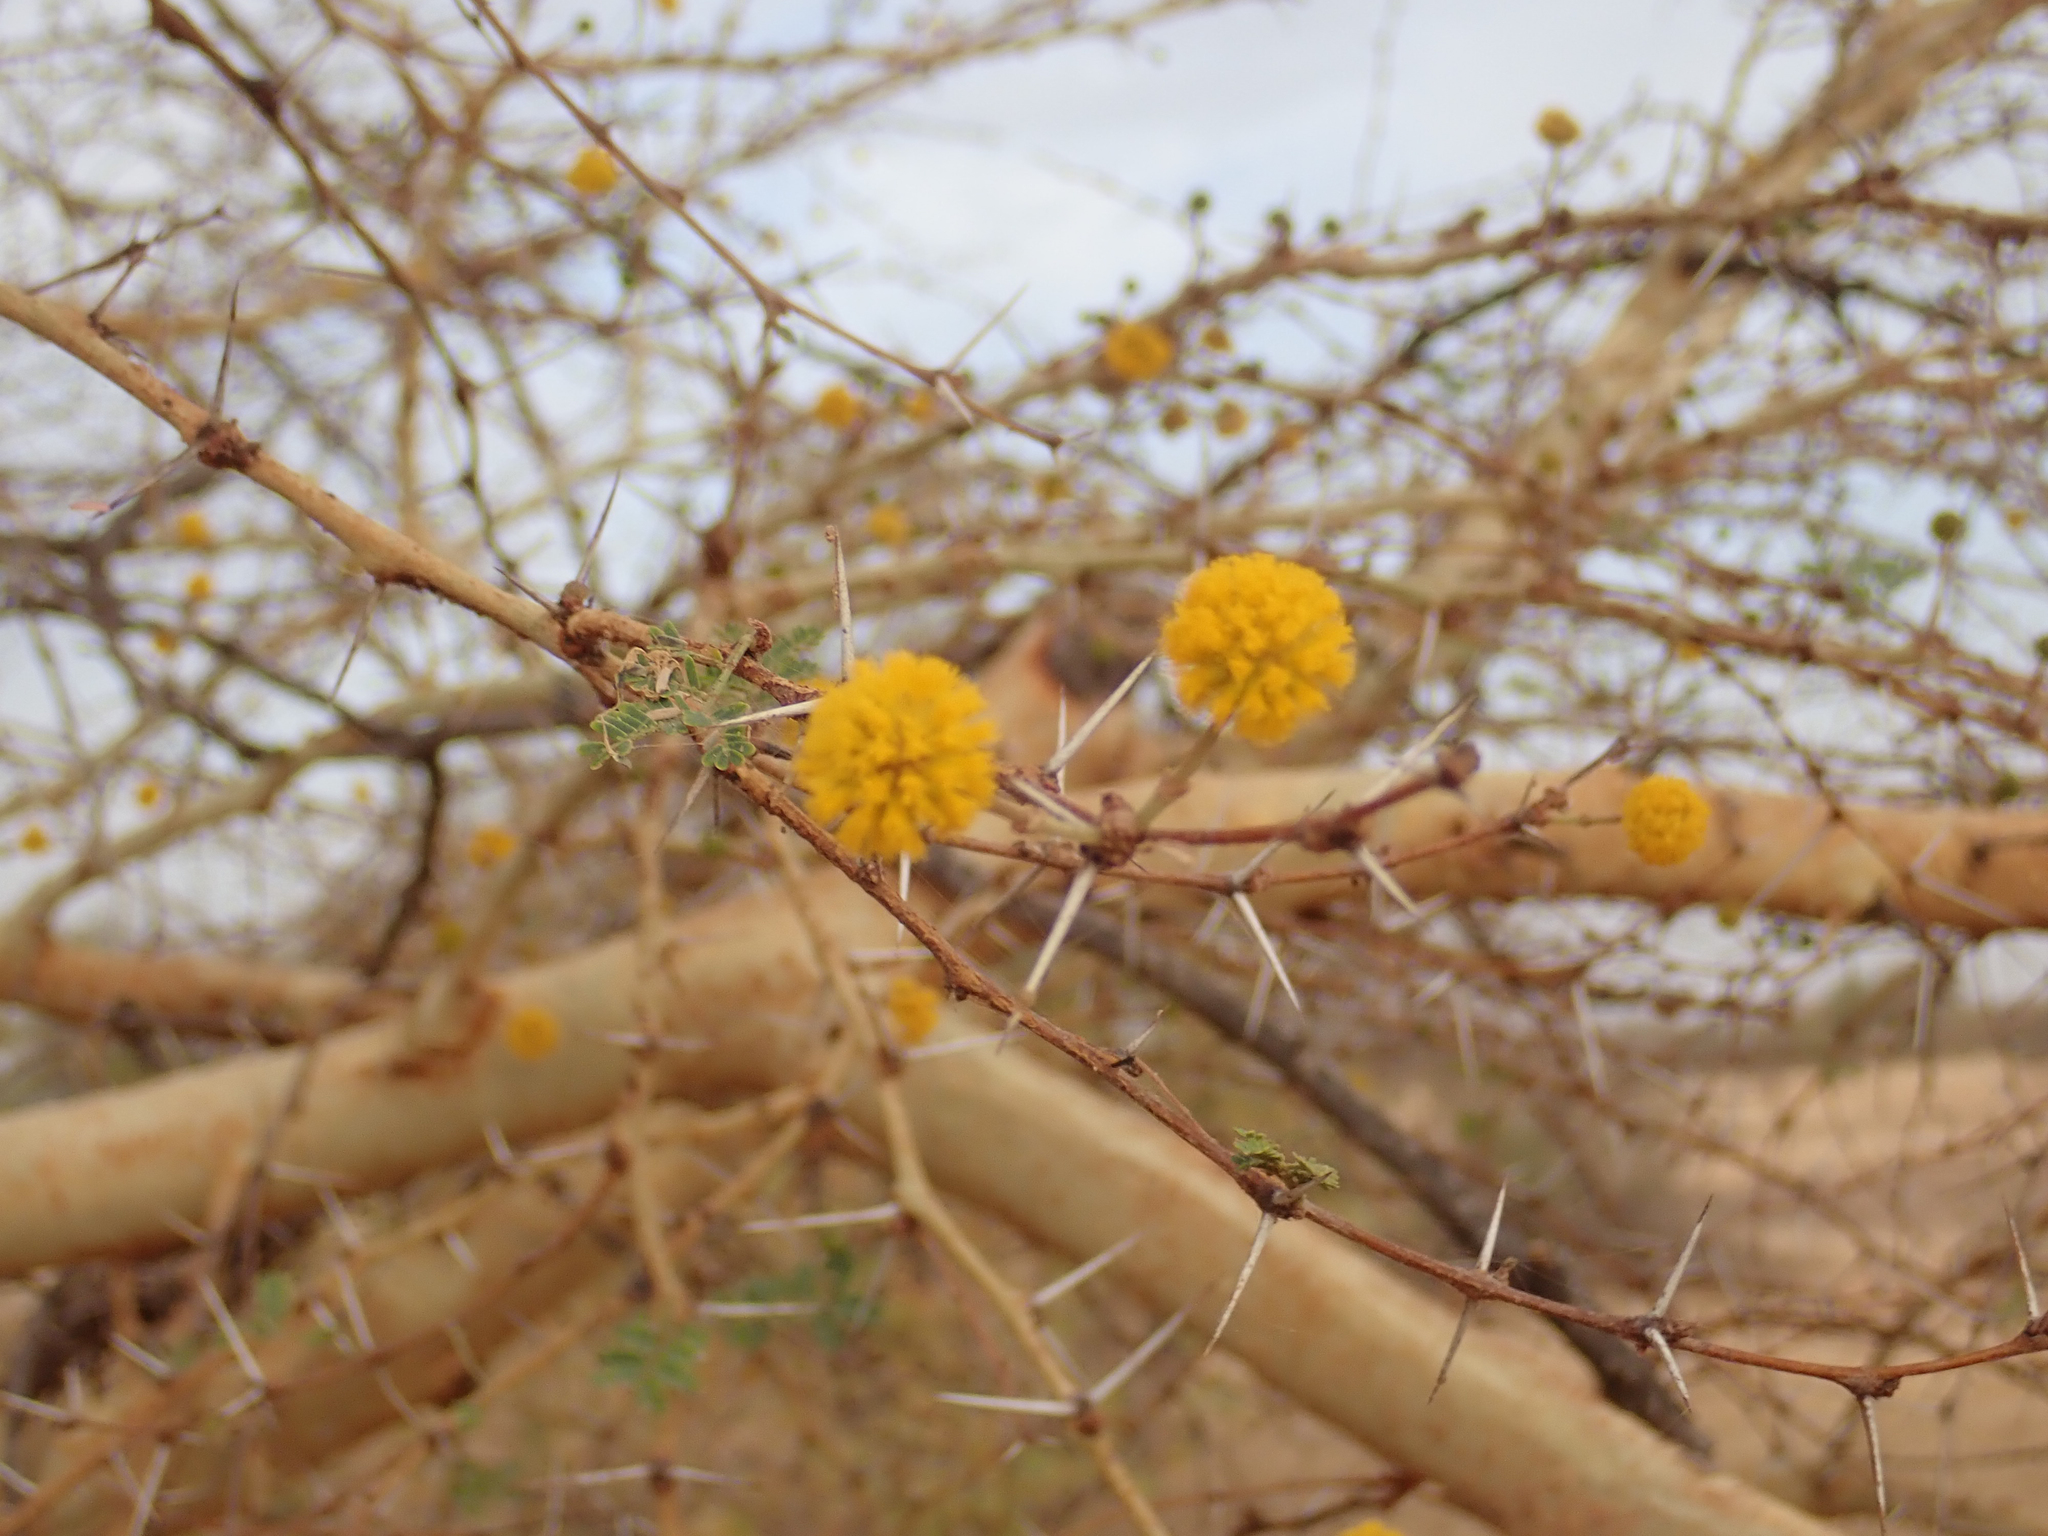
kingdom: Plantae
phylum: Tracheophyta
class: Magnoliopsida
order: Fabales
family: Fabaceae
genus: Vachellia
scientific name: Vachellia seyal
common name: Thirtythorn
